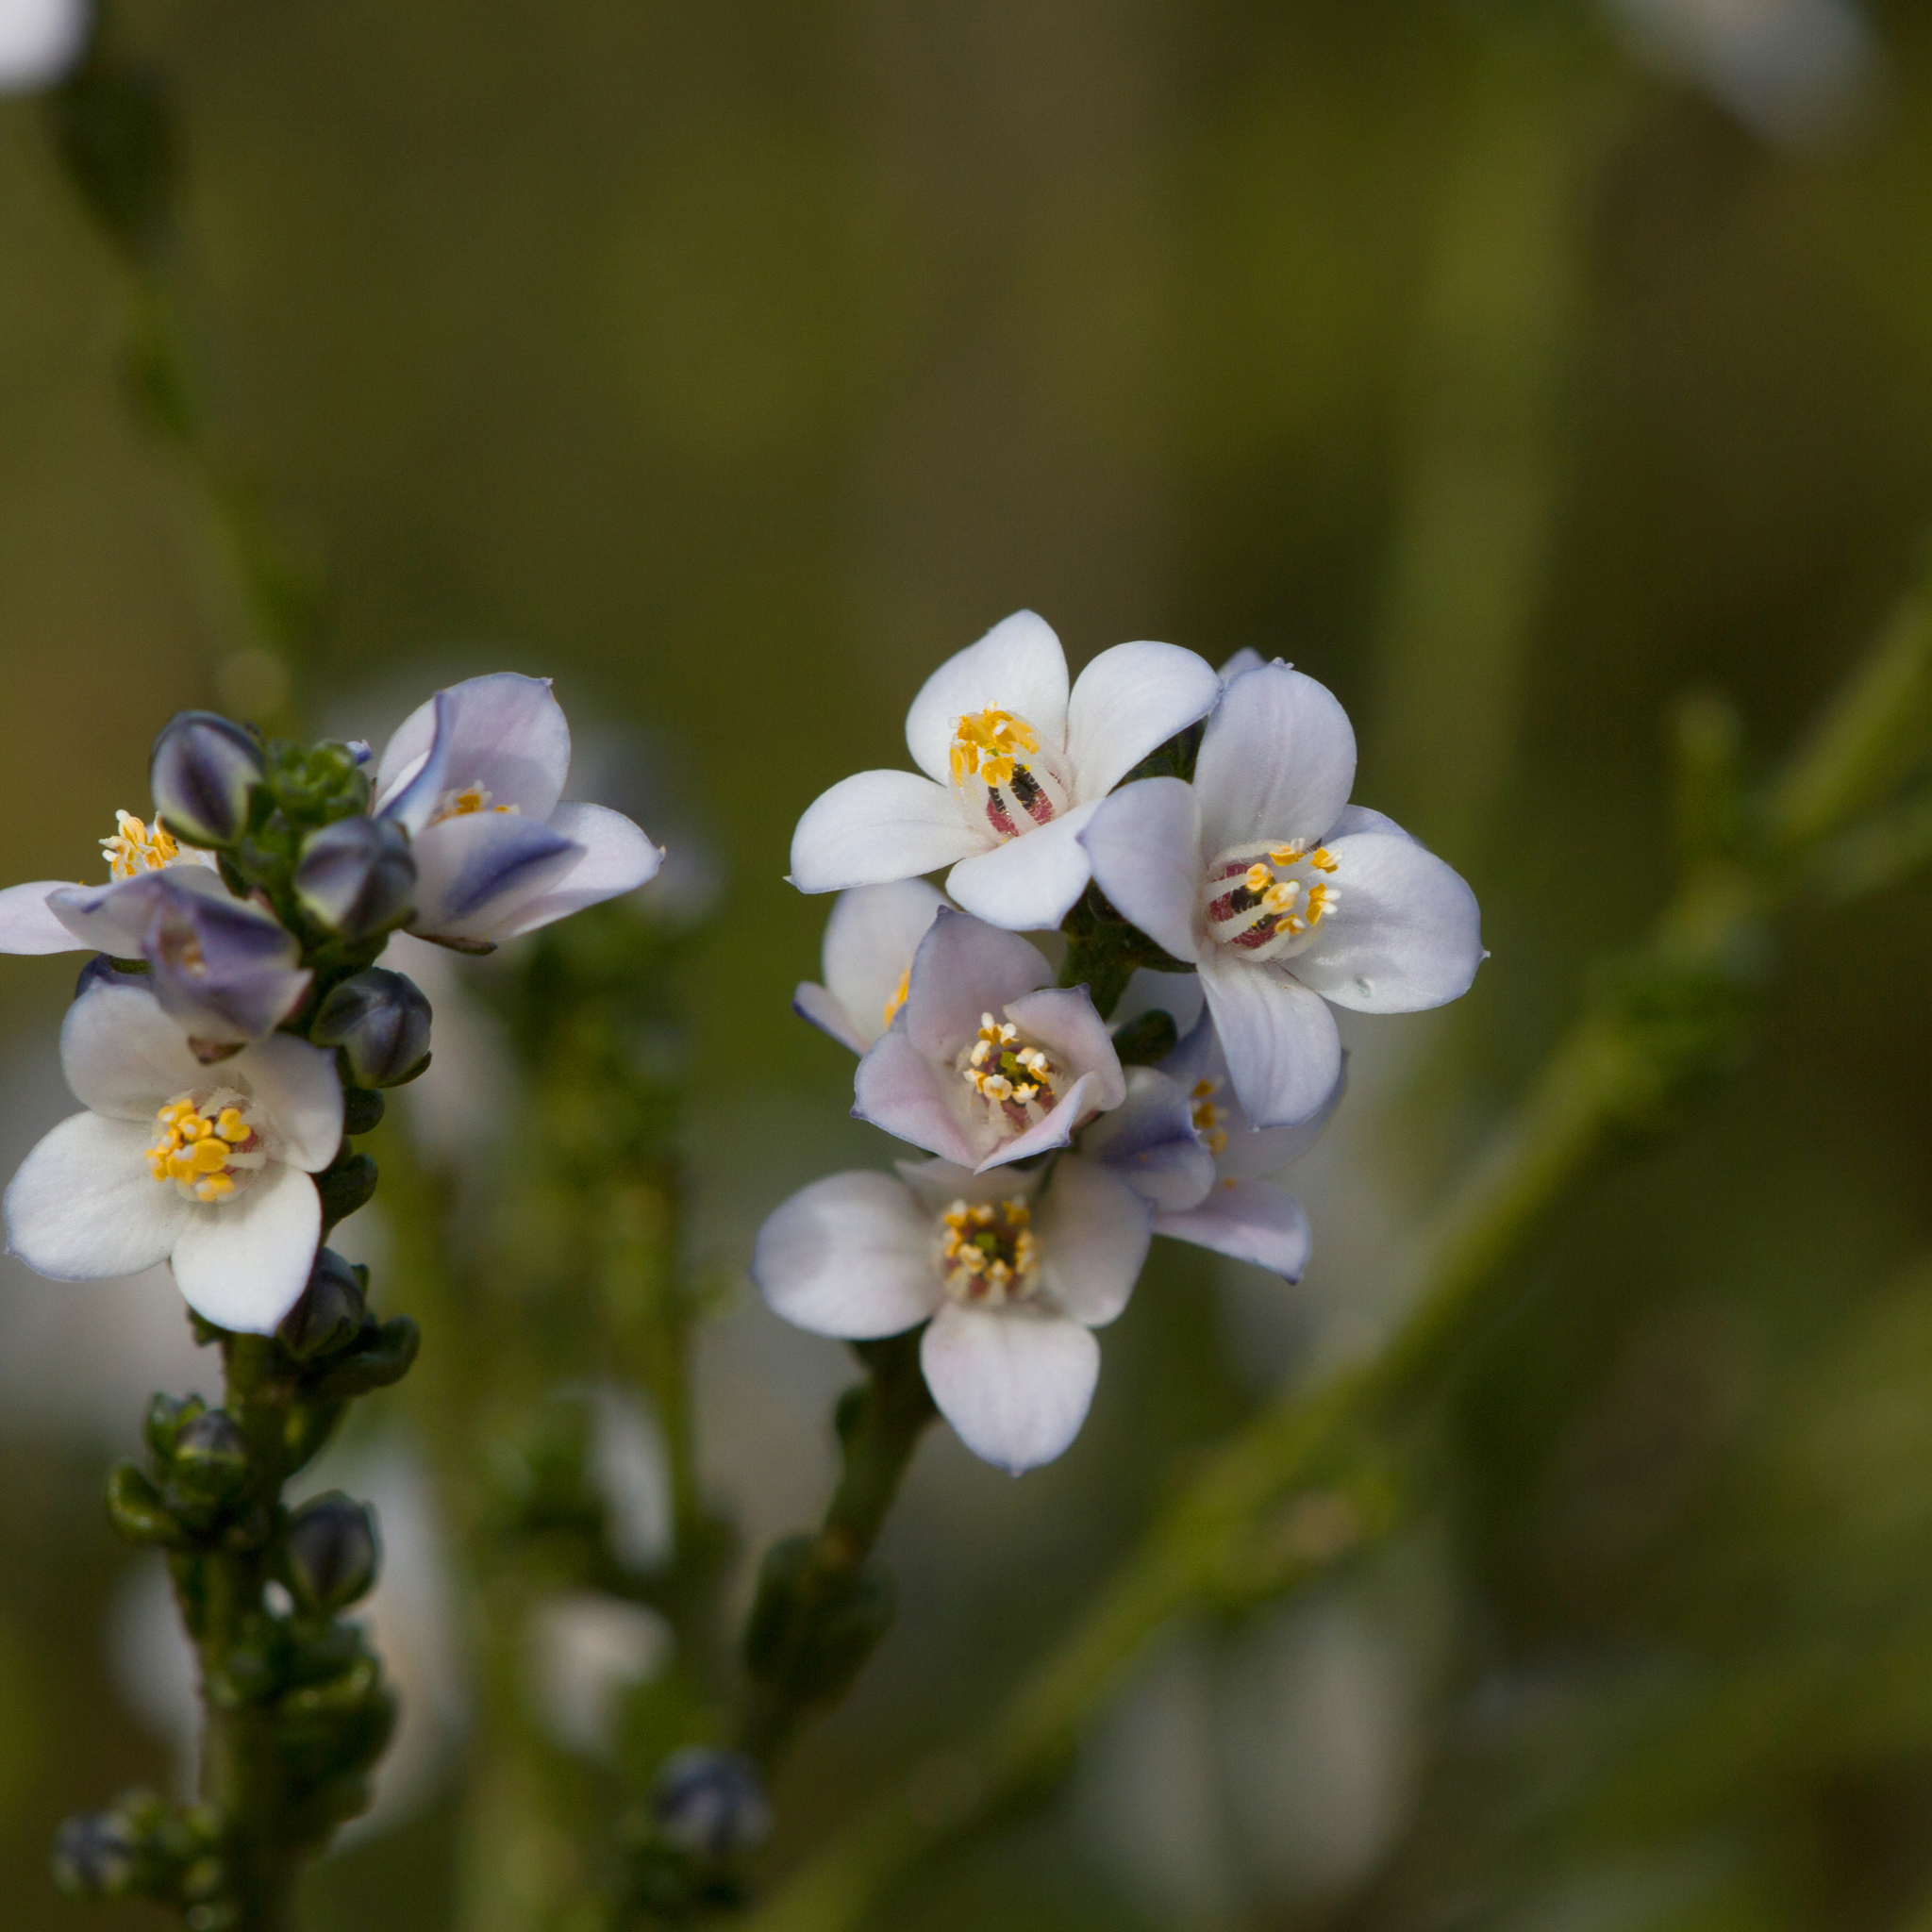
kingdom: Plantae
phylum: Tracheophyta
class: Magnoliopsida
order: Sapindales
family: Rutaceae
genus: Cyanothamnus
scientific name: Cyanothamnus coerulescens
